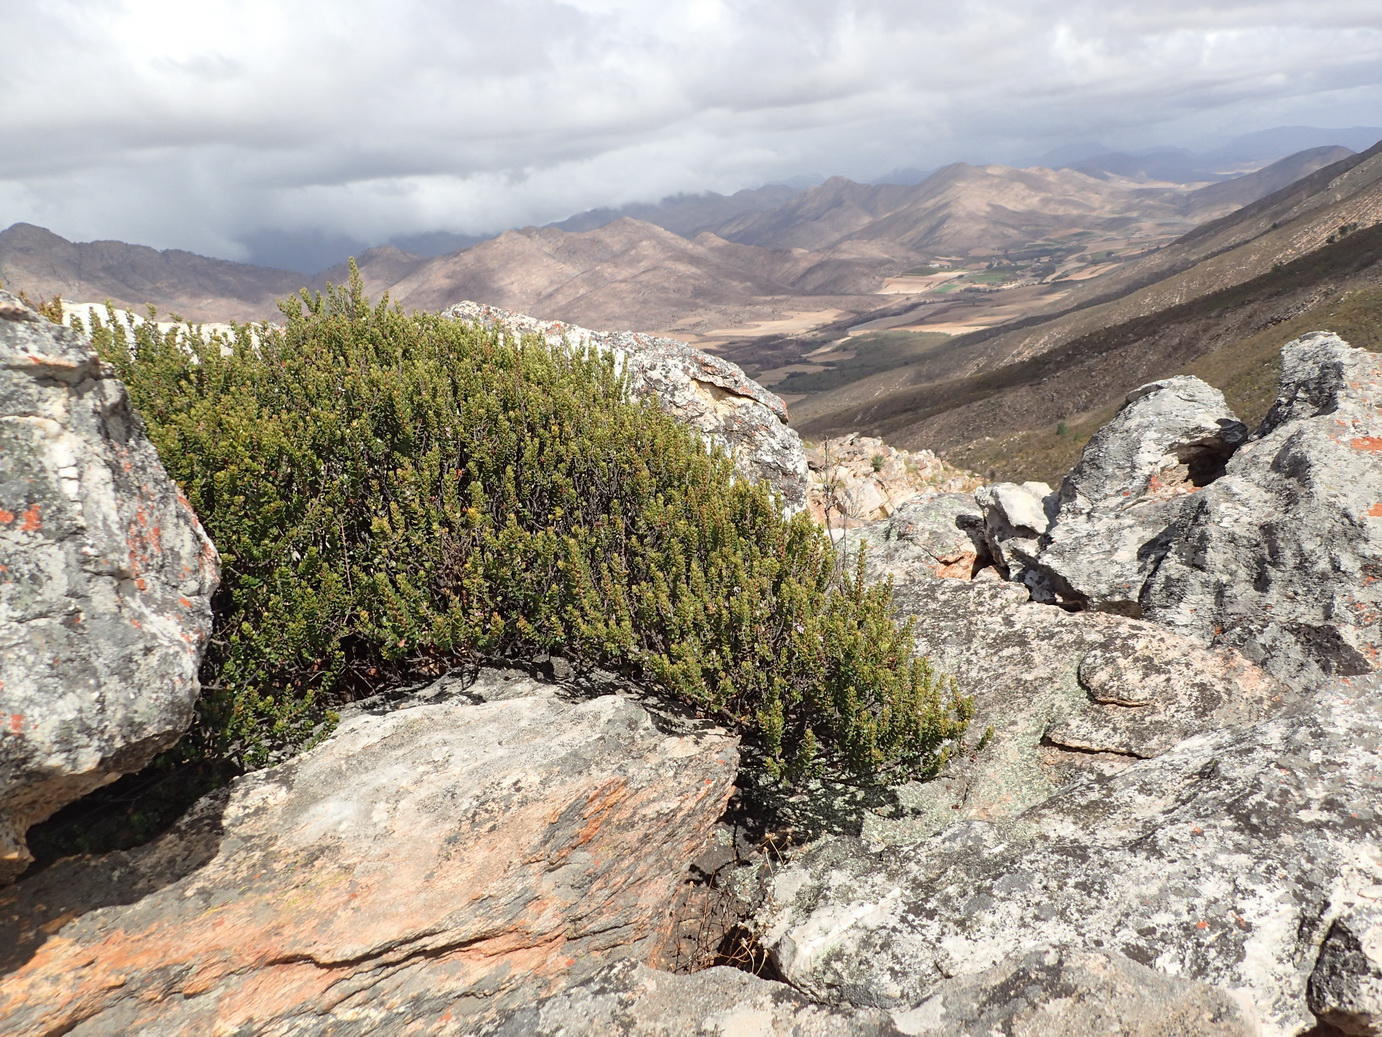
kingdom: Plantae
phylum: Tracheophyta
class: Magnoliopsida
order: Sapindales
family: Rutaceae
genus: Agathosma
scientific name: Agathosma ovata
